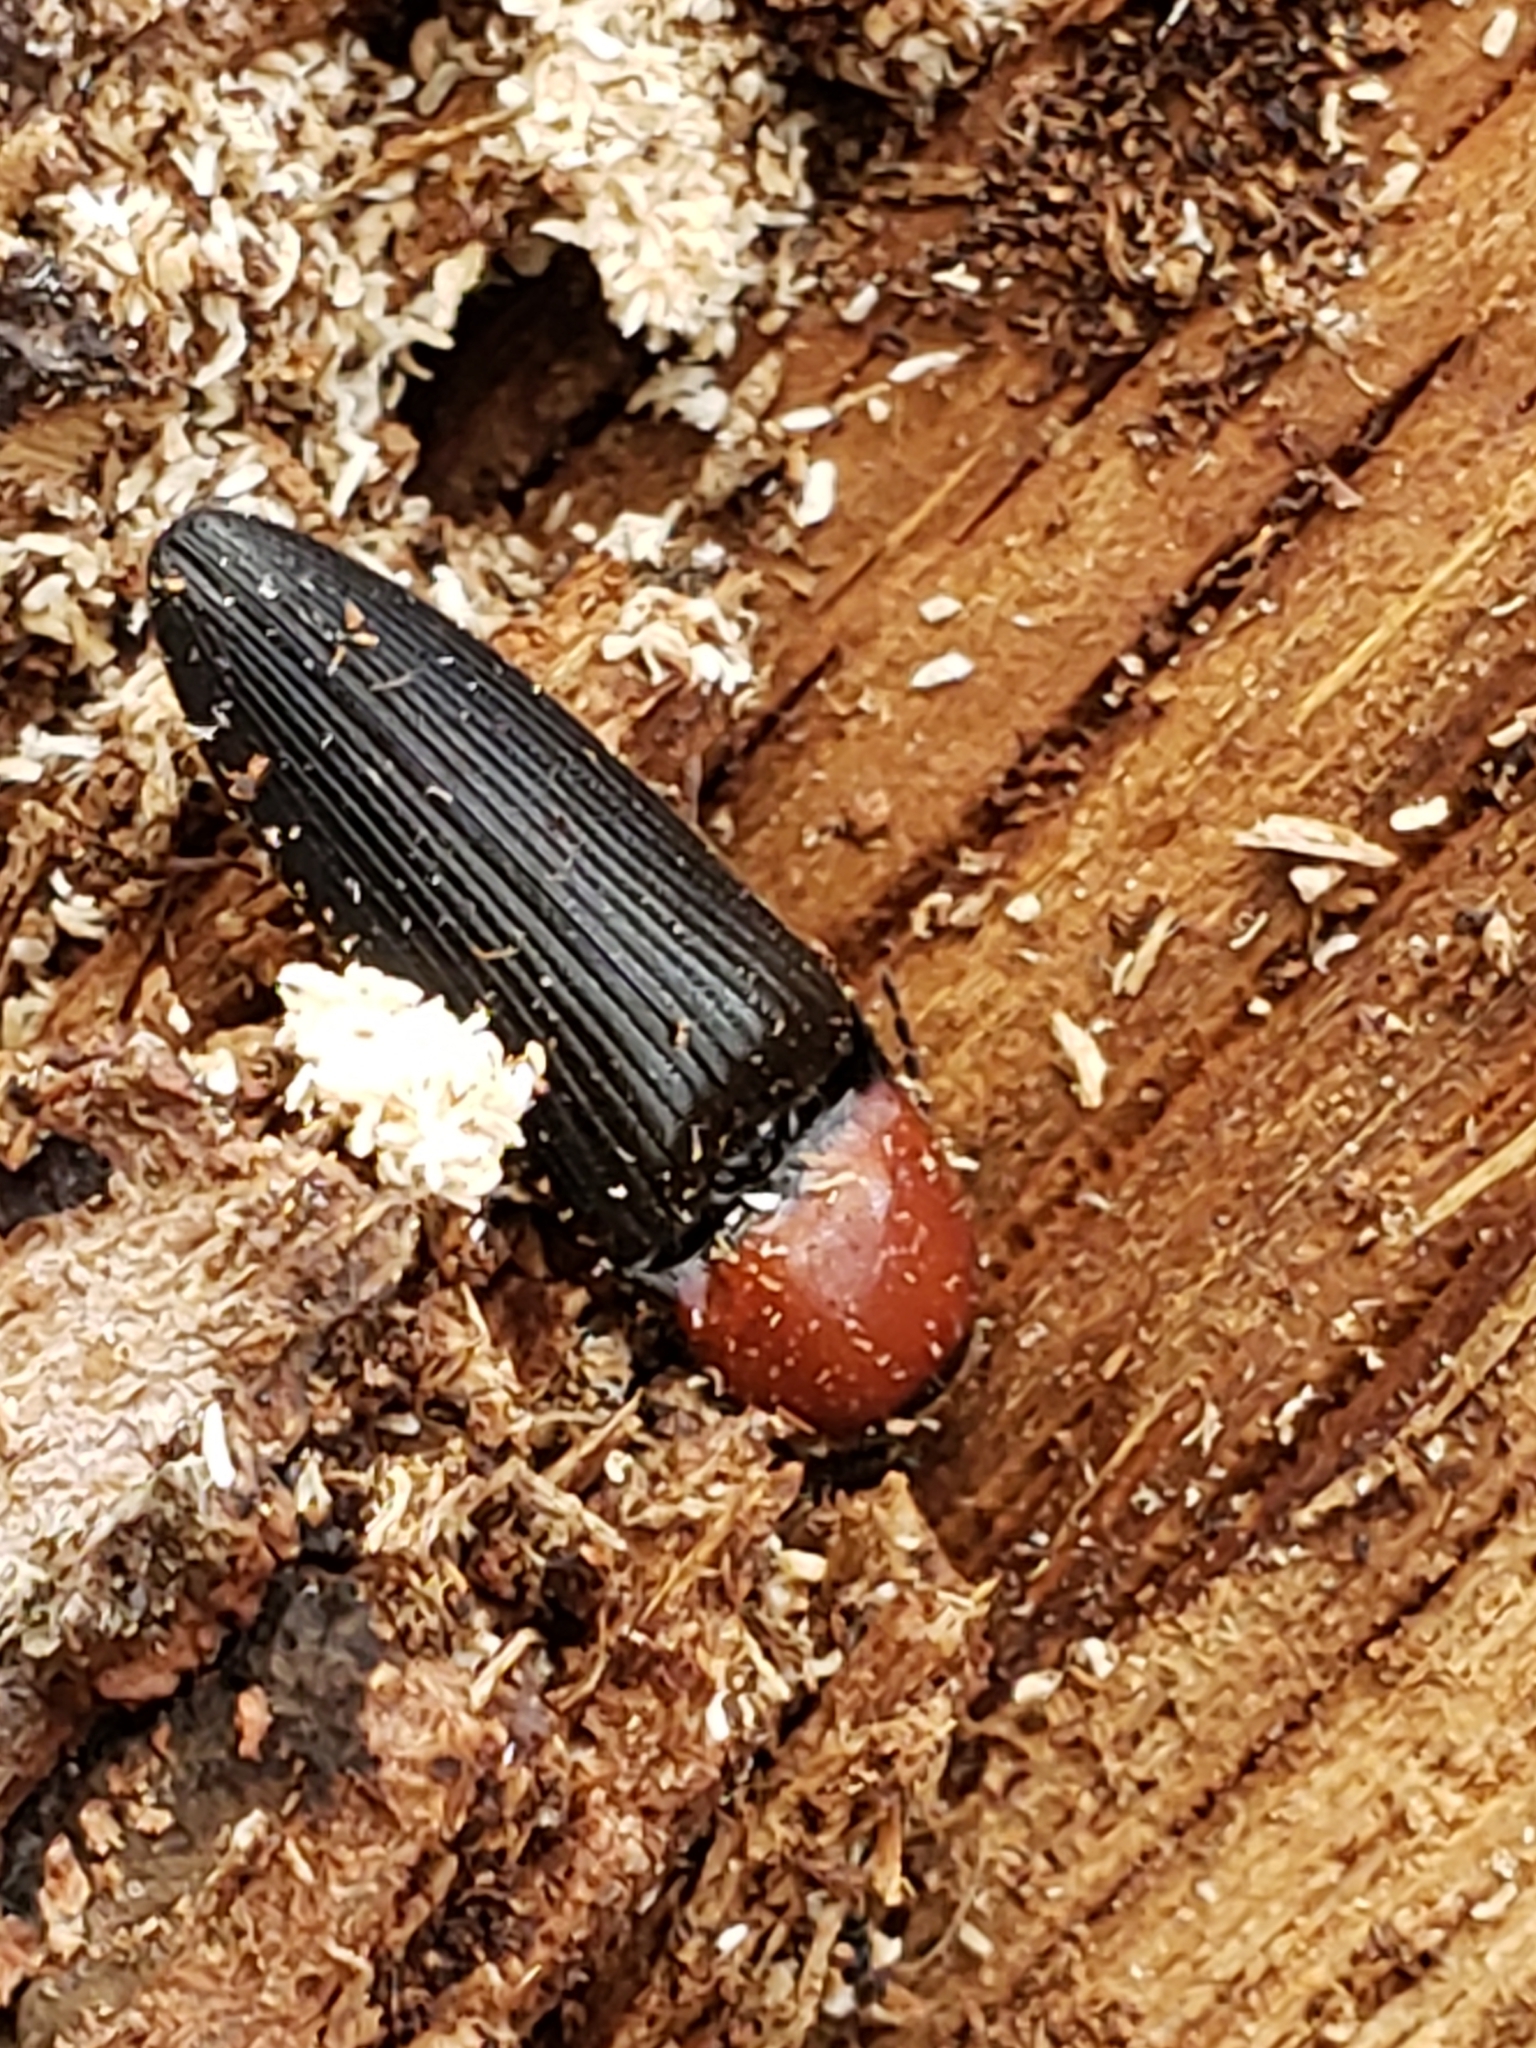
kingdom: Animalia
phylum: Arthropoda
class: Insecta
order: Coleoptera
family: Elateridae
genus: Ampedus
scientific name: Ampedus rubricollis
